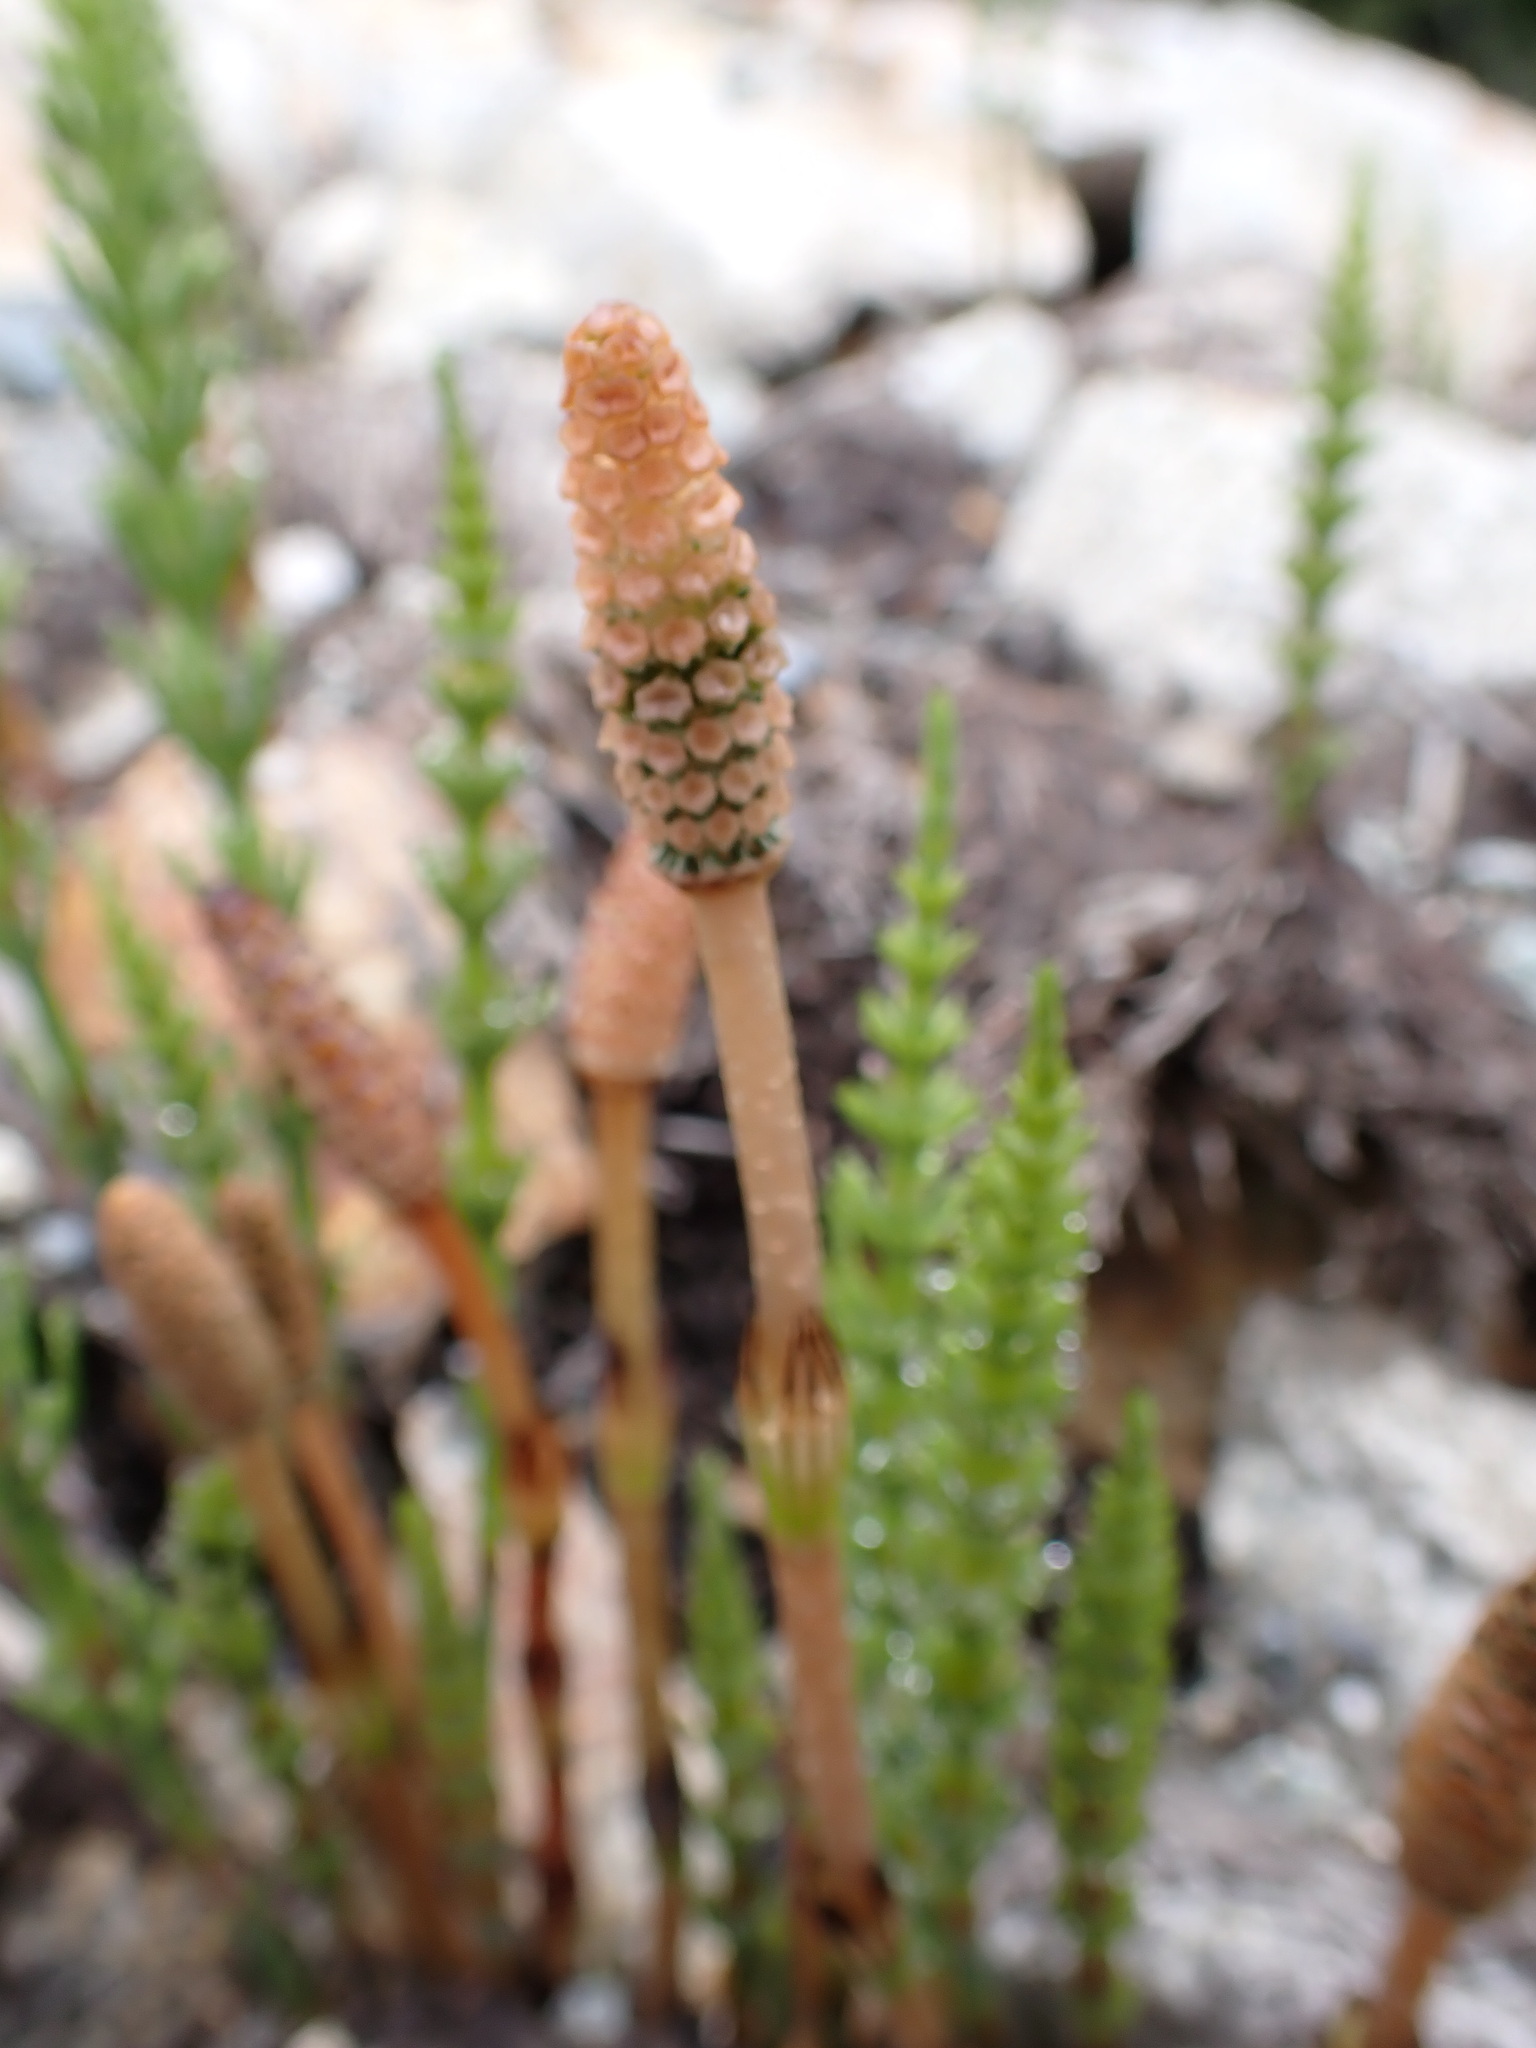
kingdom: Plantae
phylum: Tracheophyta
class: Polypodiopsida
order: Equisetales
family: Equisetaceae
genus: Equisetum
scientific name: Equisetum arvense
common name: Field horsetail
